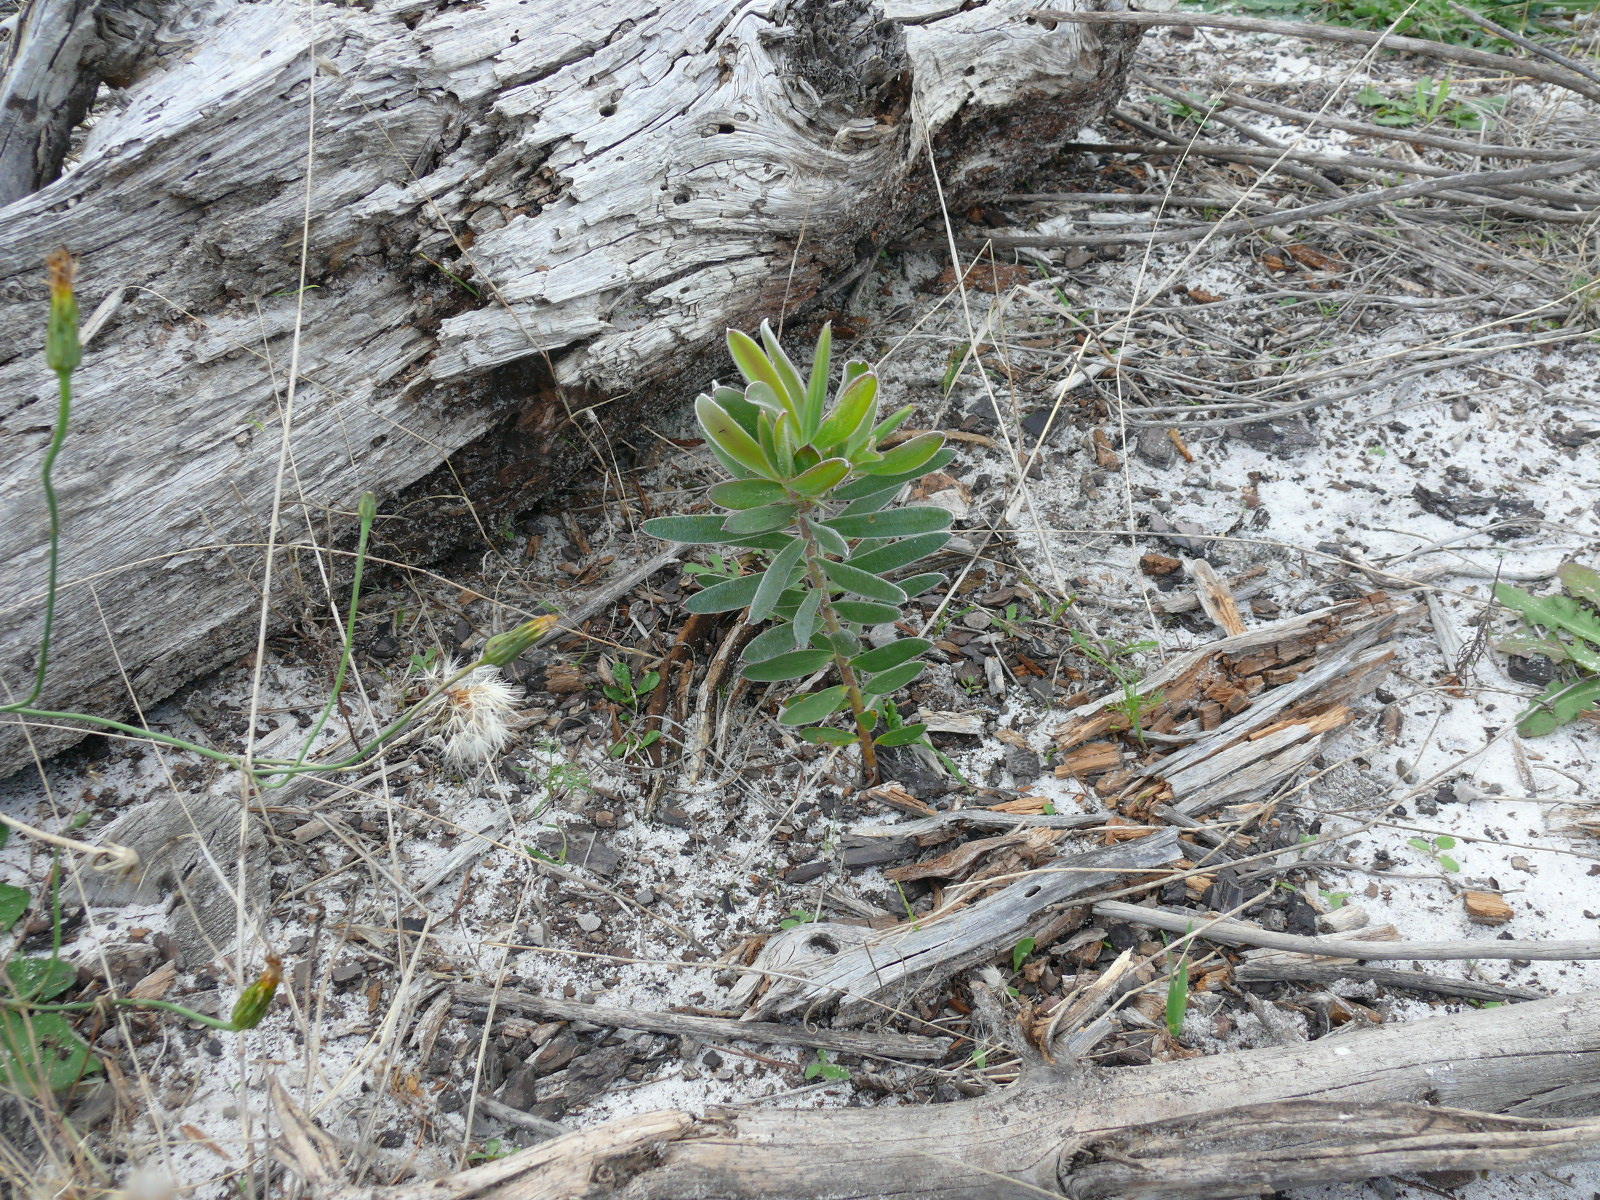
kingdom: Plantae
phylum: Tracheophyta
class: Magnoliopsida
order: Proteales
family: Proteaceae
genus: Leucadendron
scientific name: Leucadendron laureolum
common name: Golden sunshinebush
